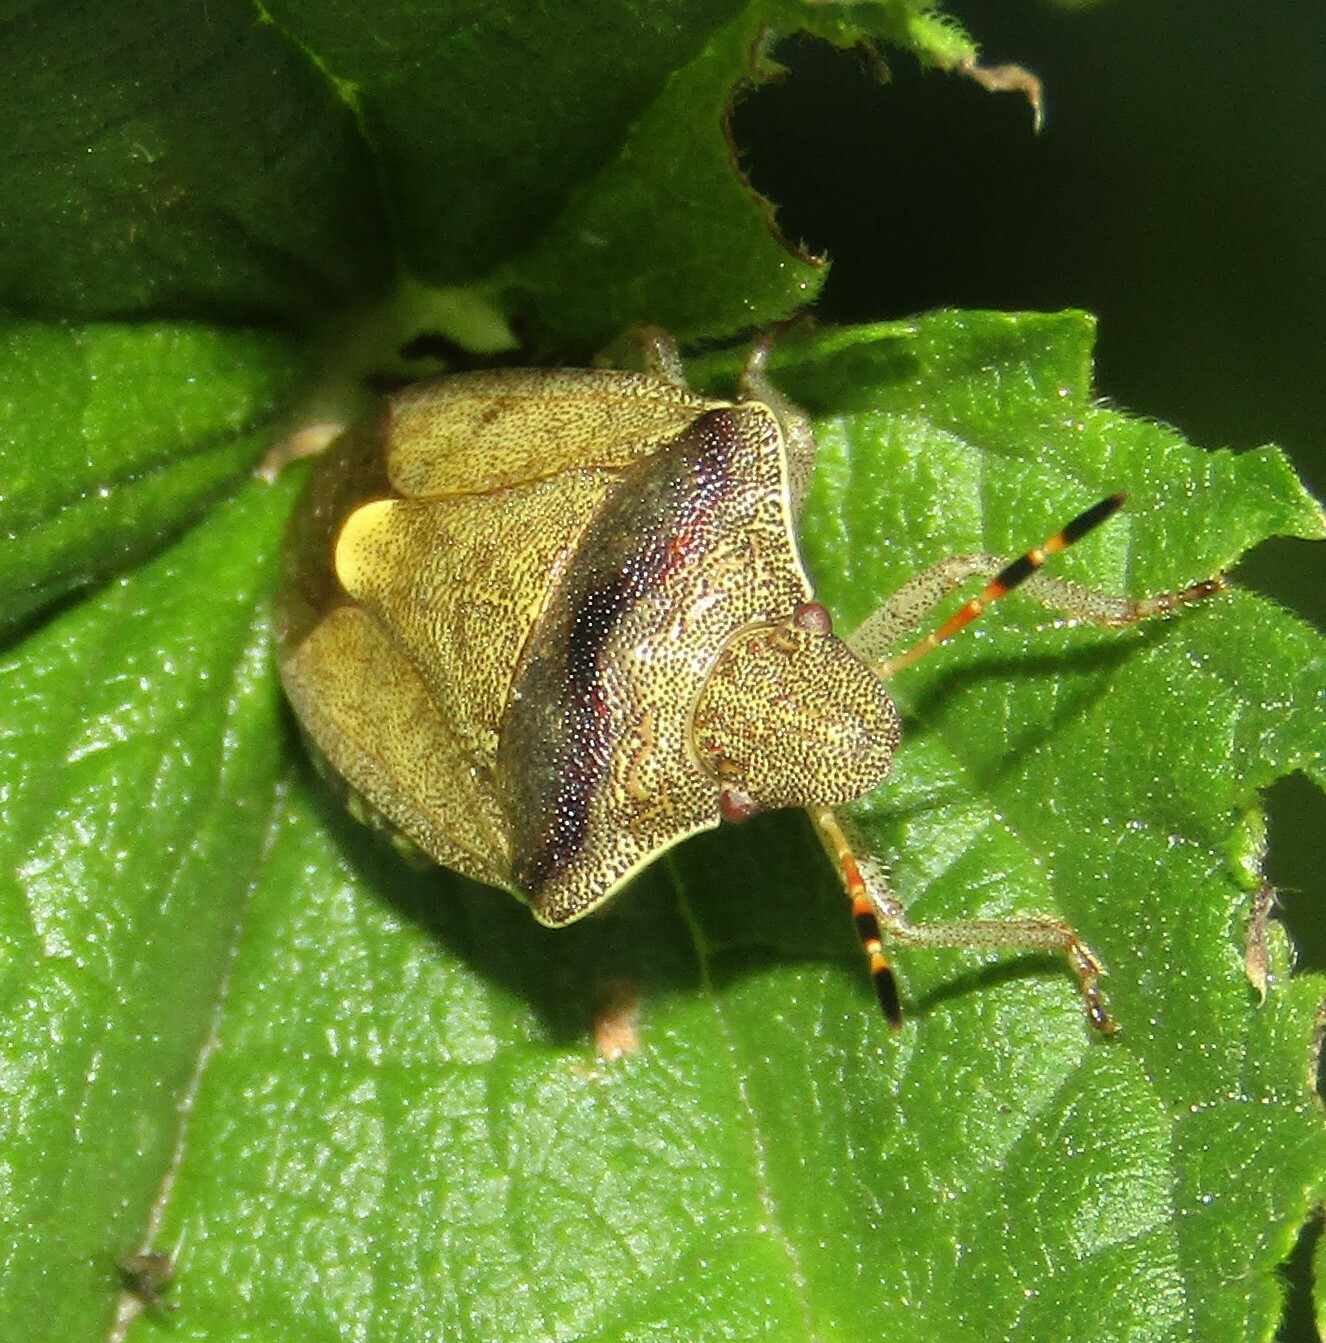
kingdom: Animalia
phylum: Arthropoda
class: Insecta
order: Hemiptera
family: Pentatomidae
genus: Holcostethus
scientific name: Holcostethus strictus
